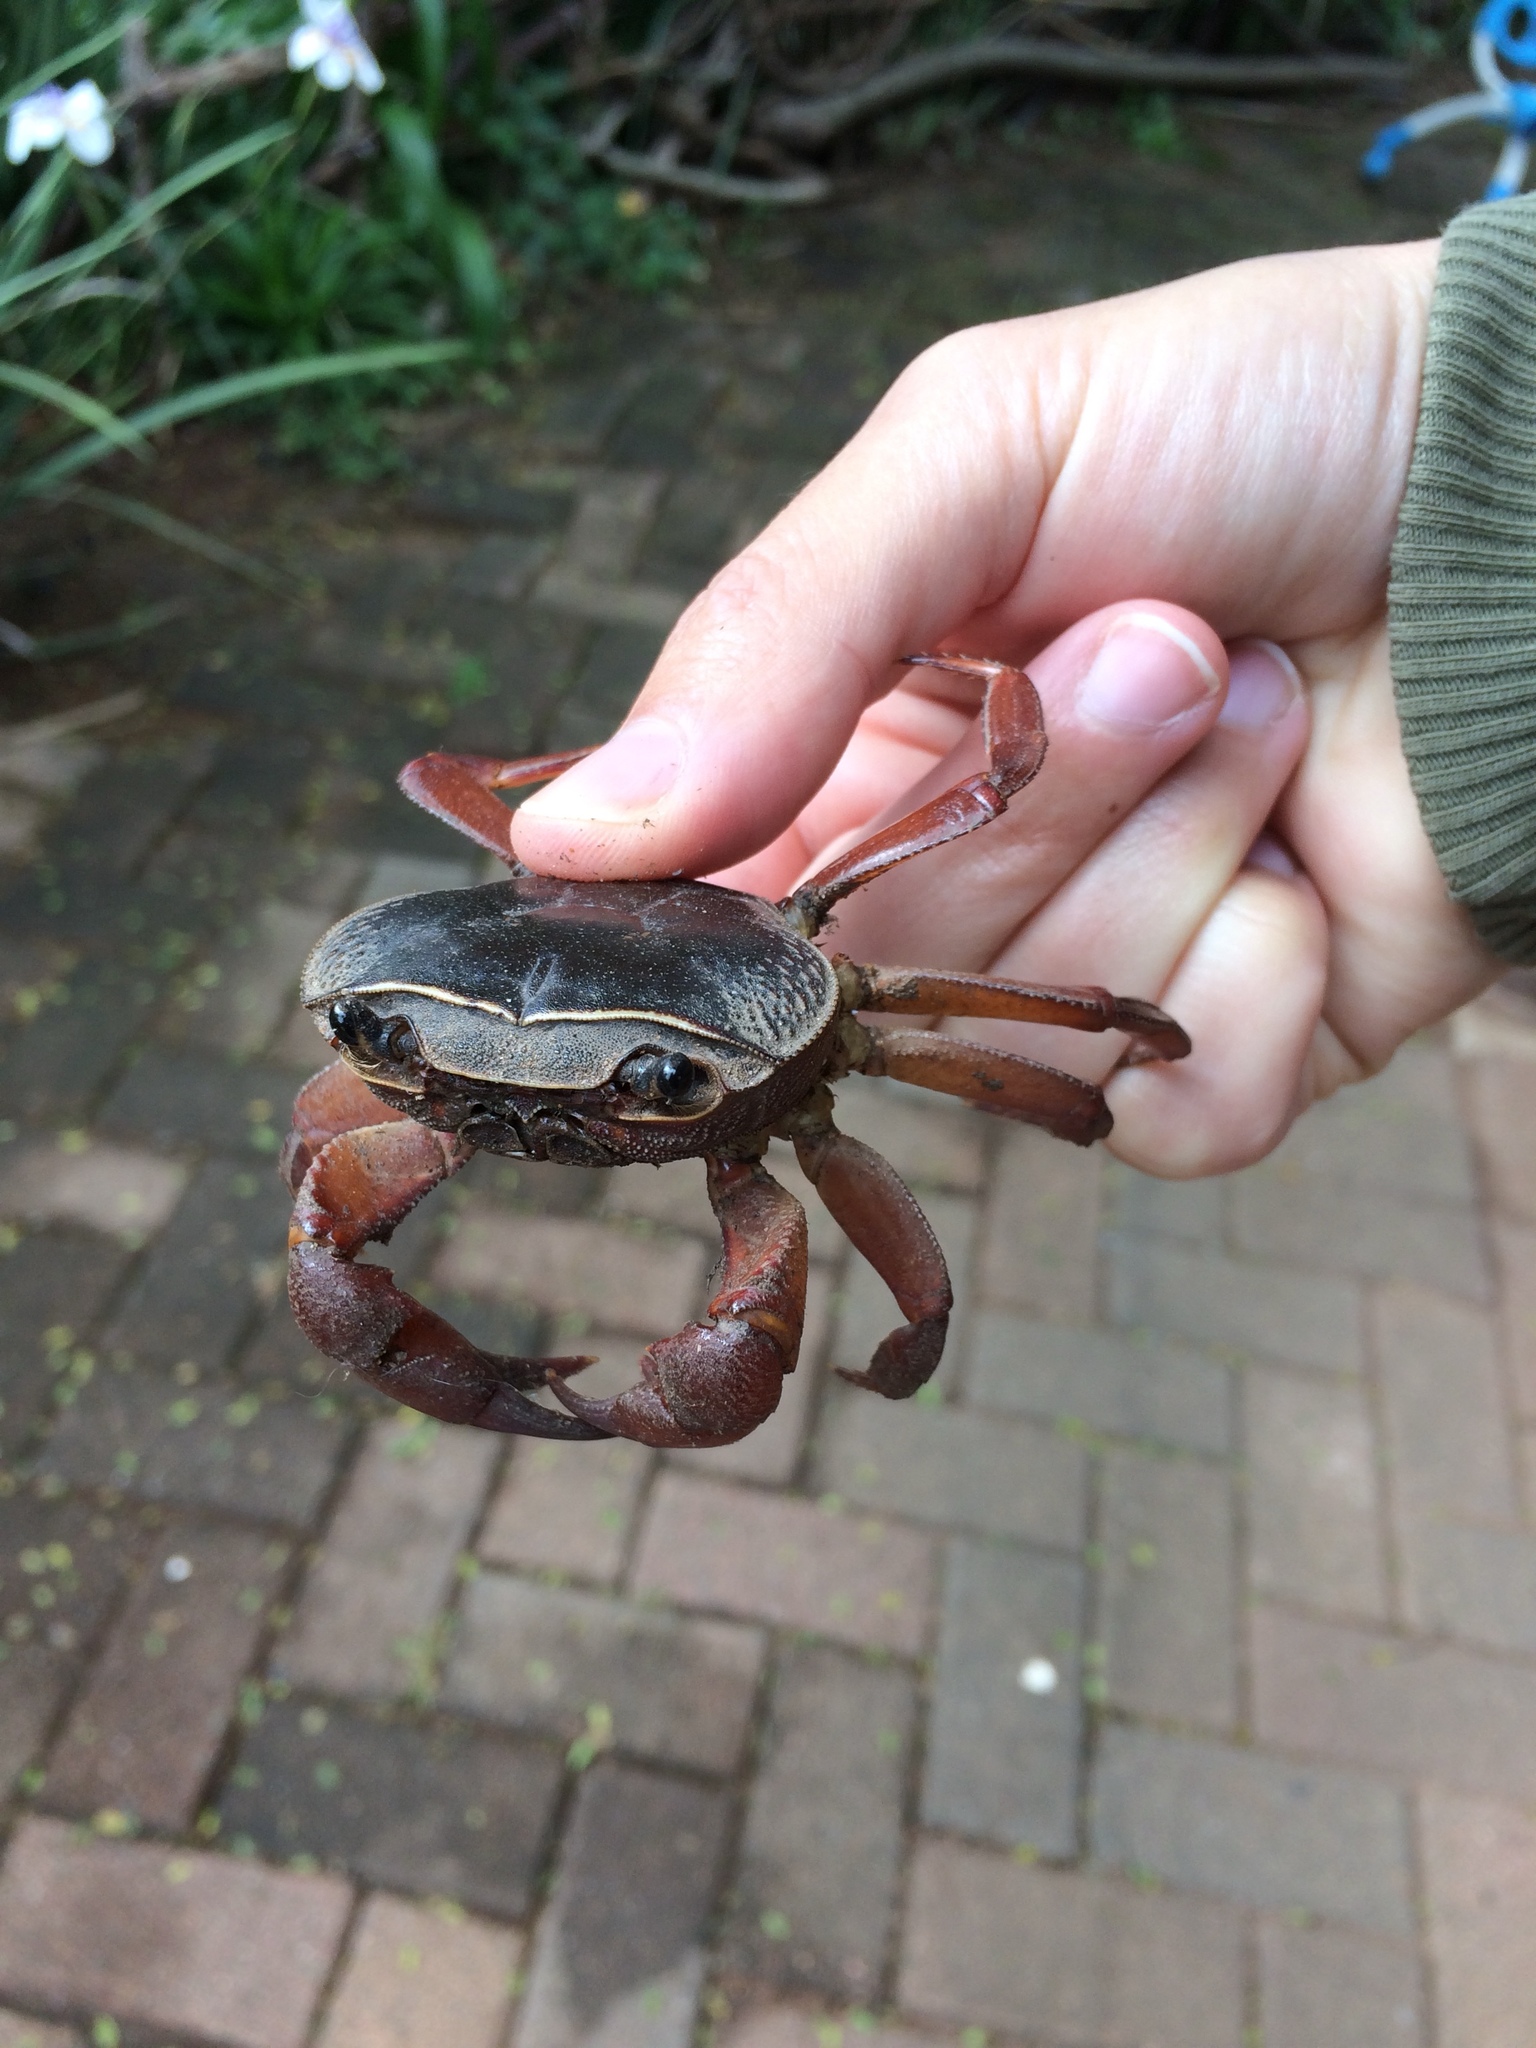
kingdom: Animalia
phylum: Arthropoda
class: Malacostraca
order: Decapoda
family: Potamonautidae
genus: Potamonautes
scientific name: Potamonautes sidneyi
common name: Natal river crab
